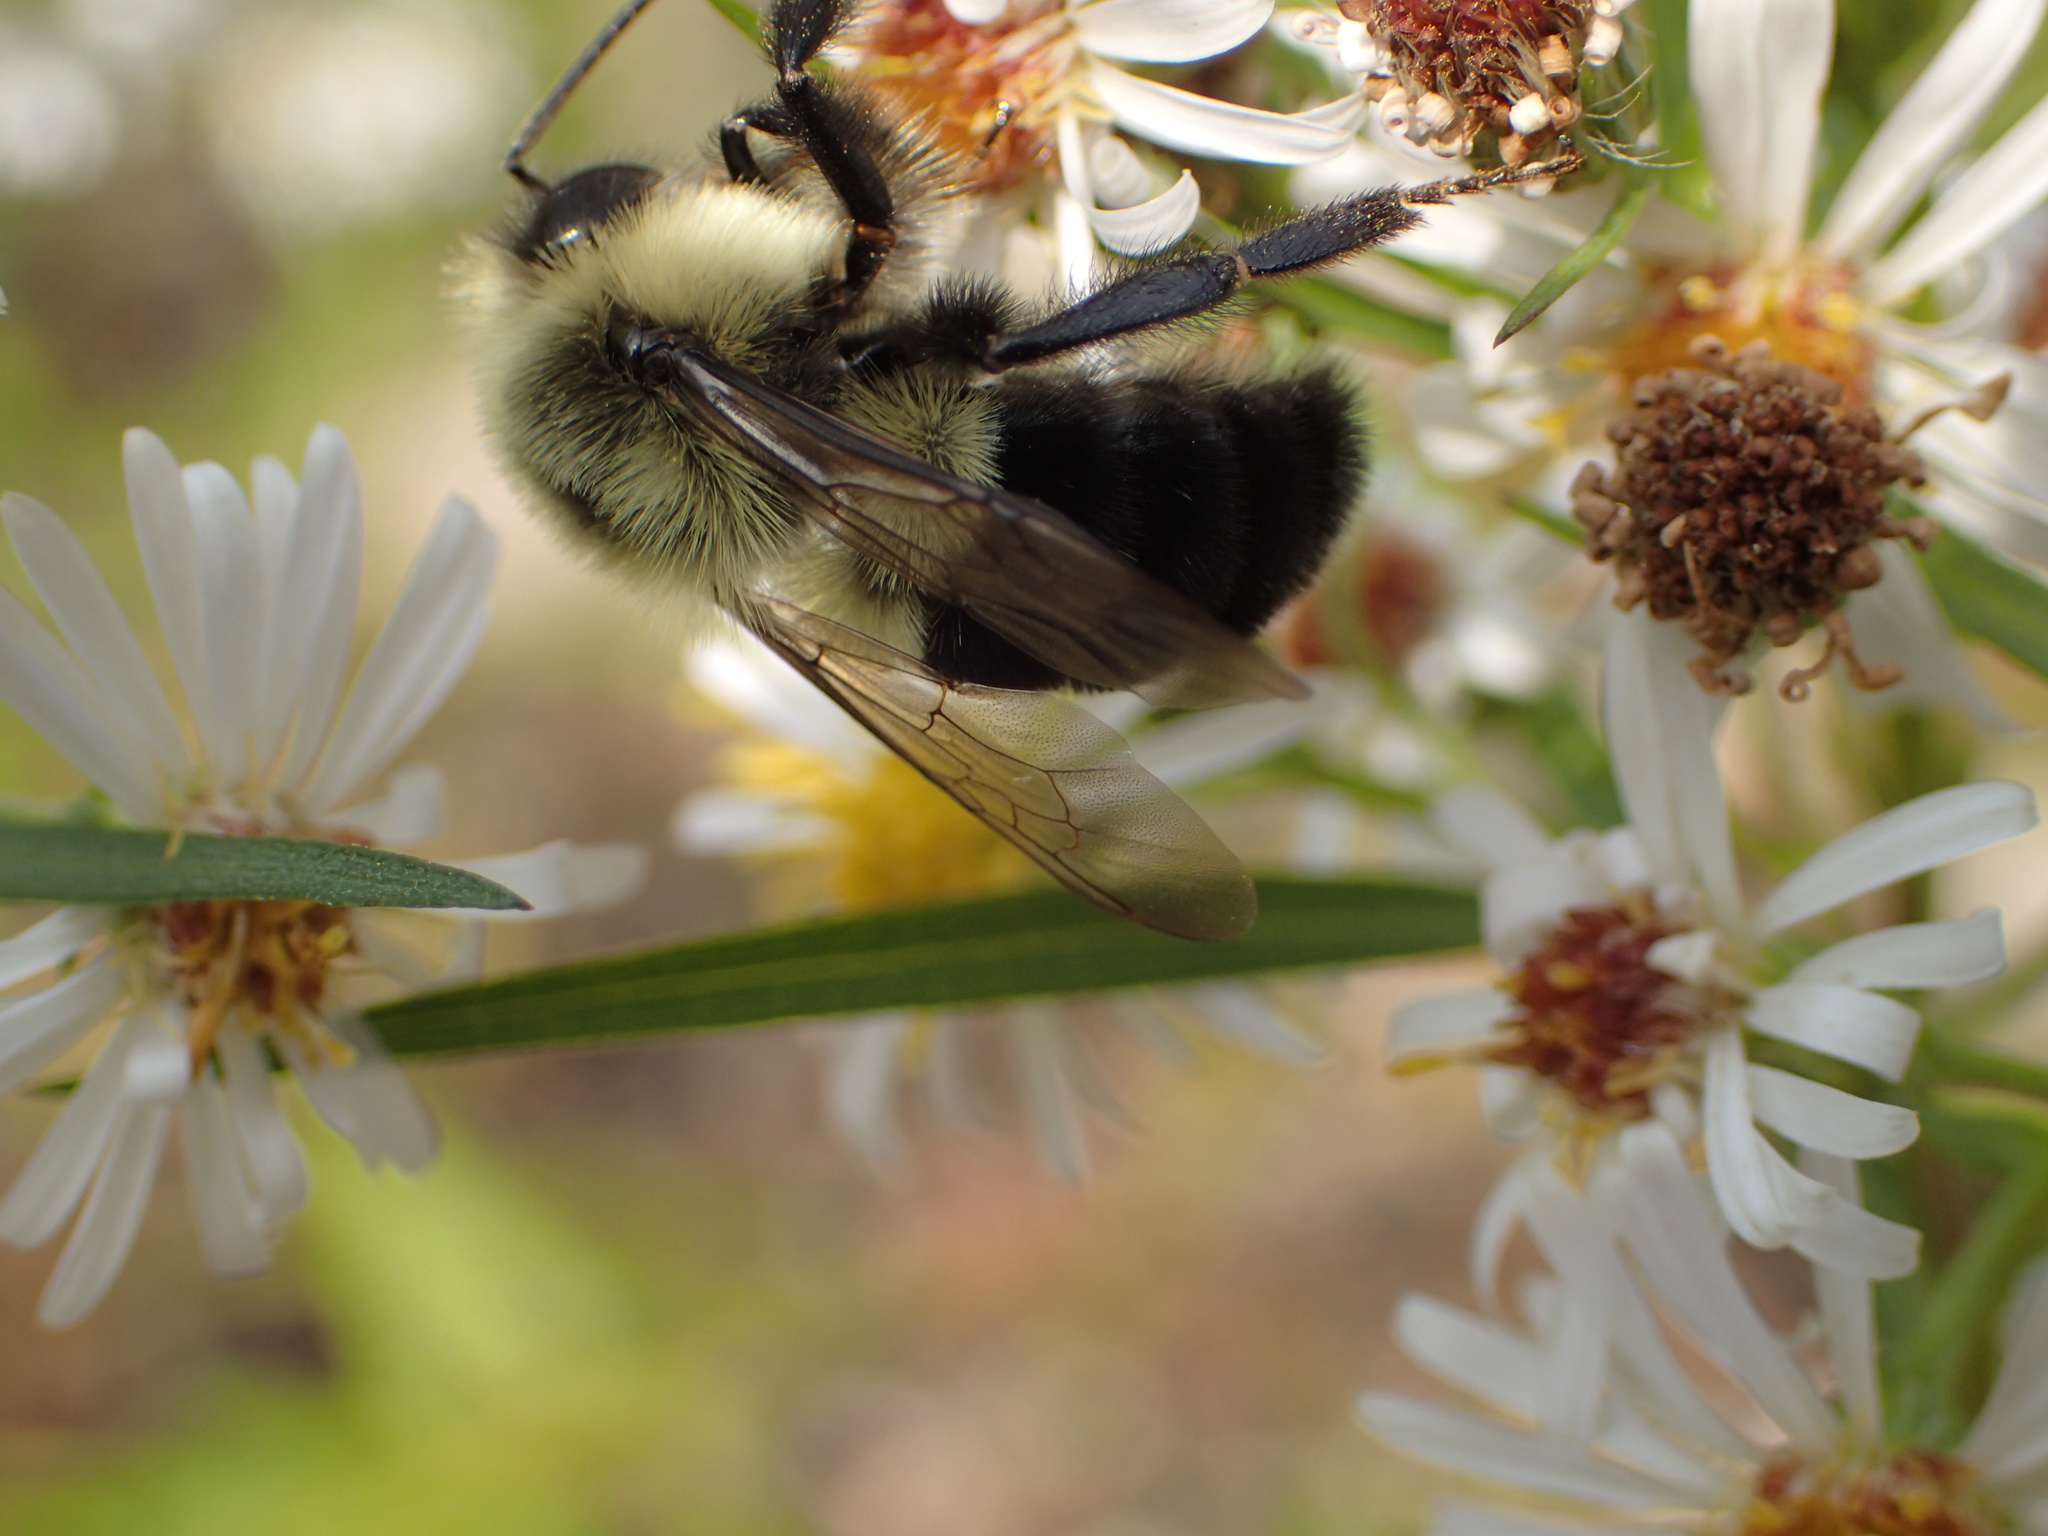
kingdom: Animalia
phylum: Arthropoda
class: Insecta
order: Hymenoptera
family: Apidae
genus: Bombus
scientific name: Bombus impatiens
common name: Common eastern bumble bee
